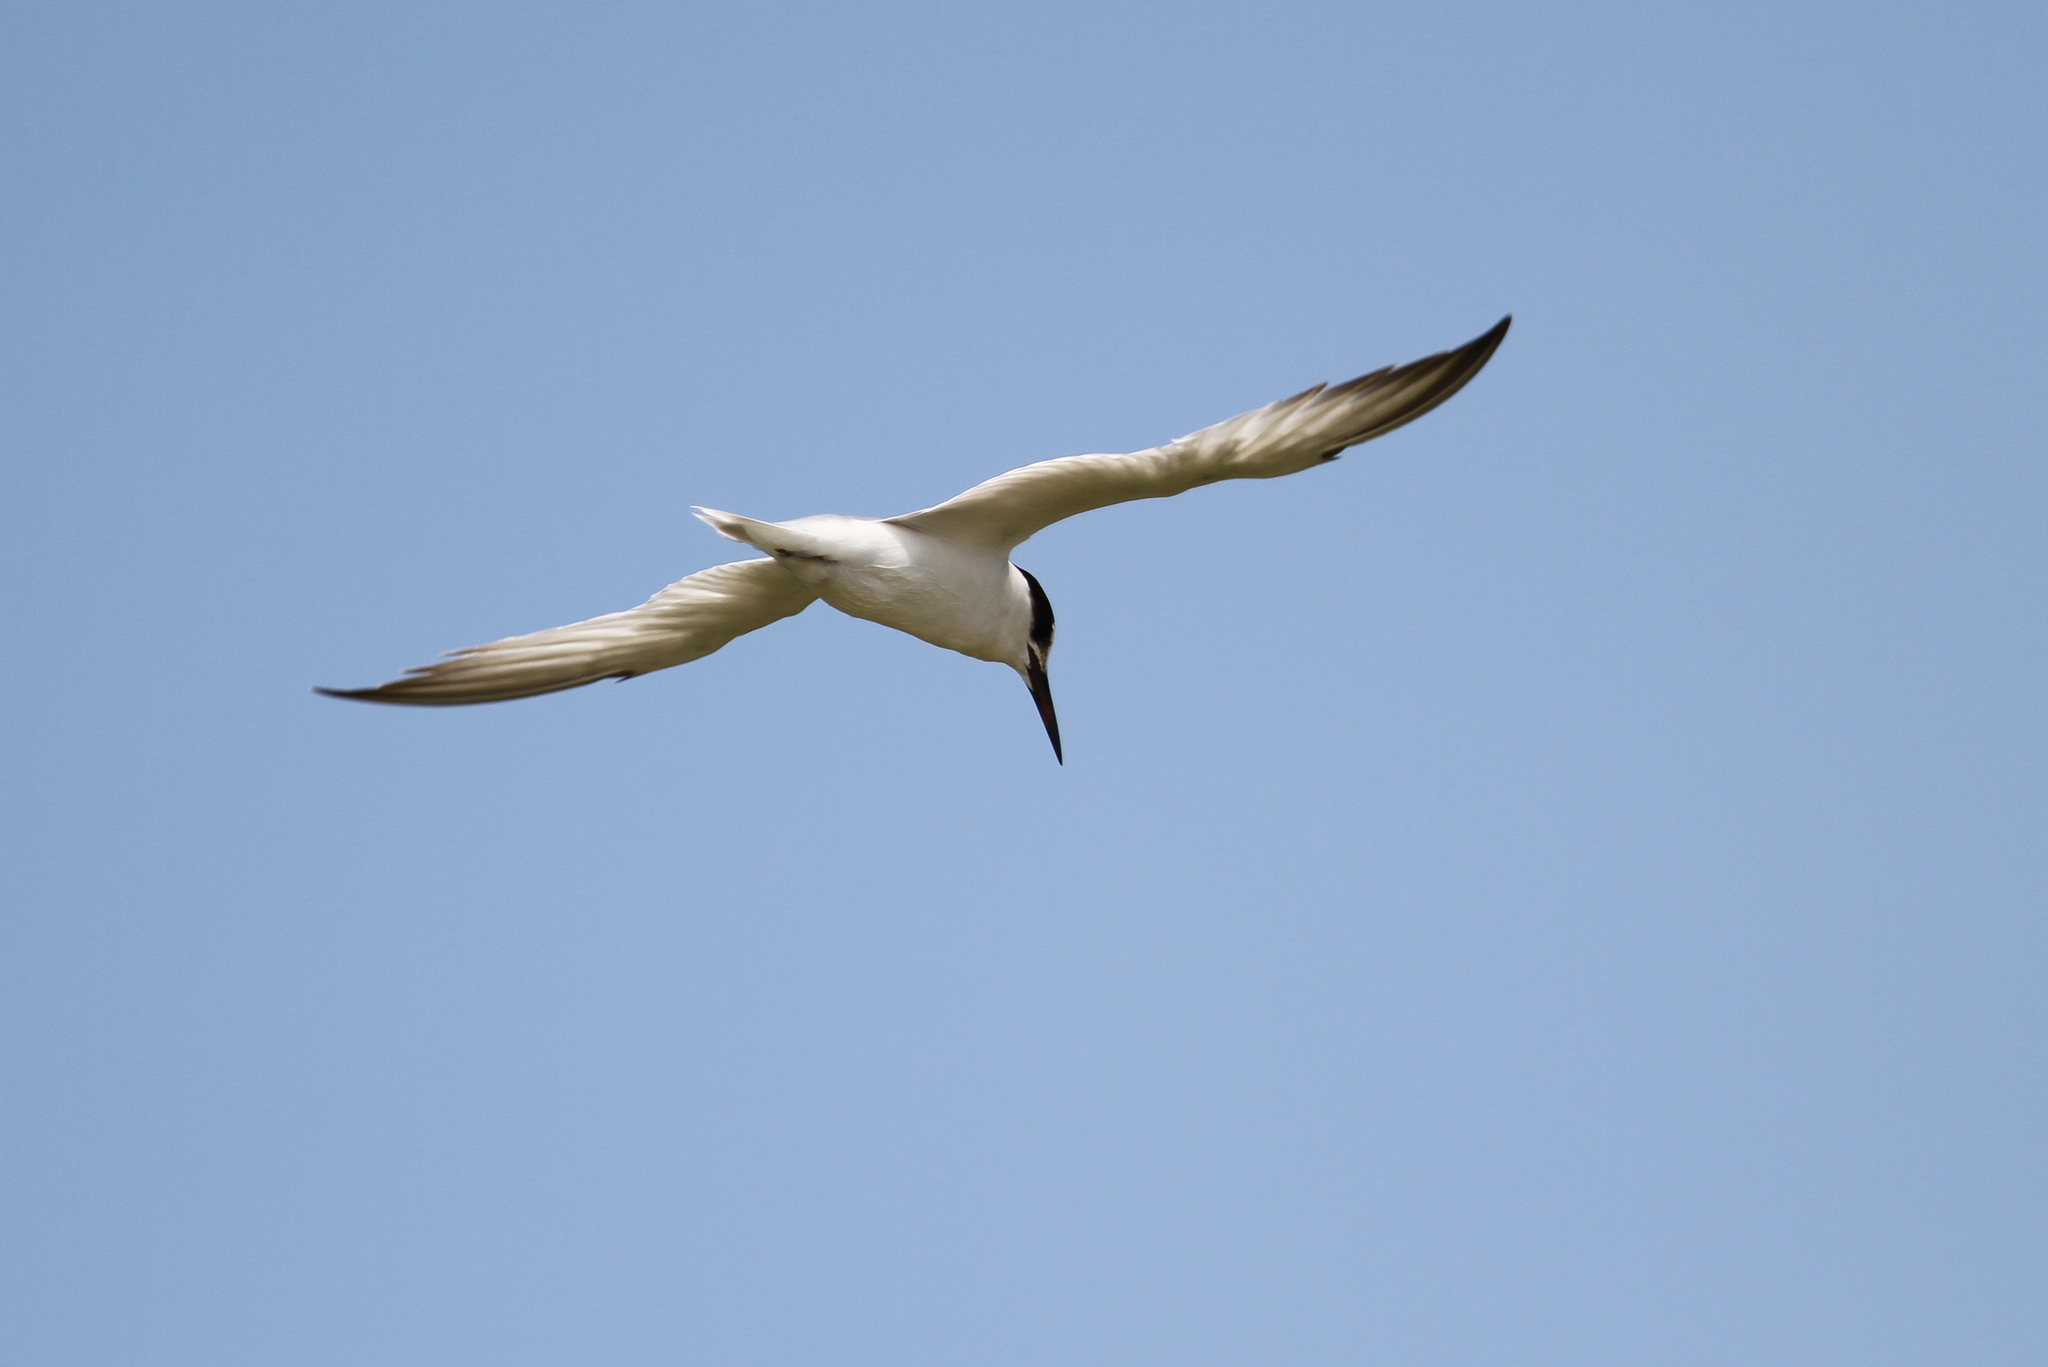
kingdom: Animalia
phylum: Chordata
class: Aves
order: Charadriiformes
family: Laridae
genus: Sternula
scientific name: Sternula albifrons
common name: Little tern
